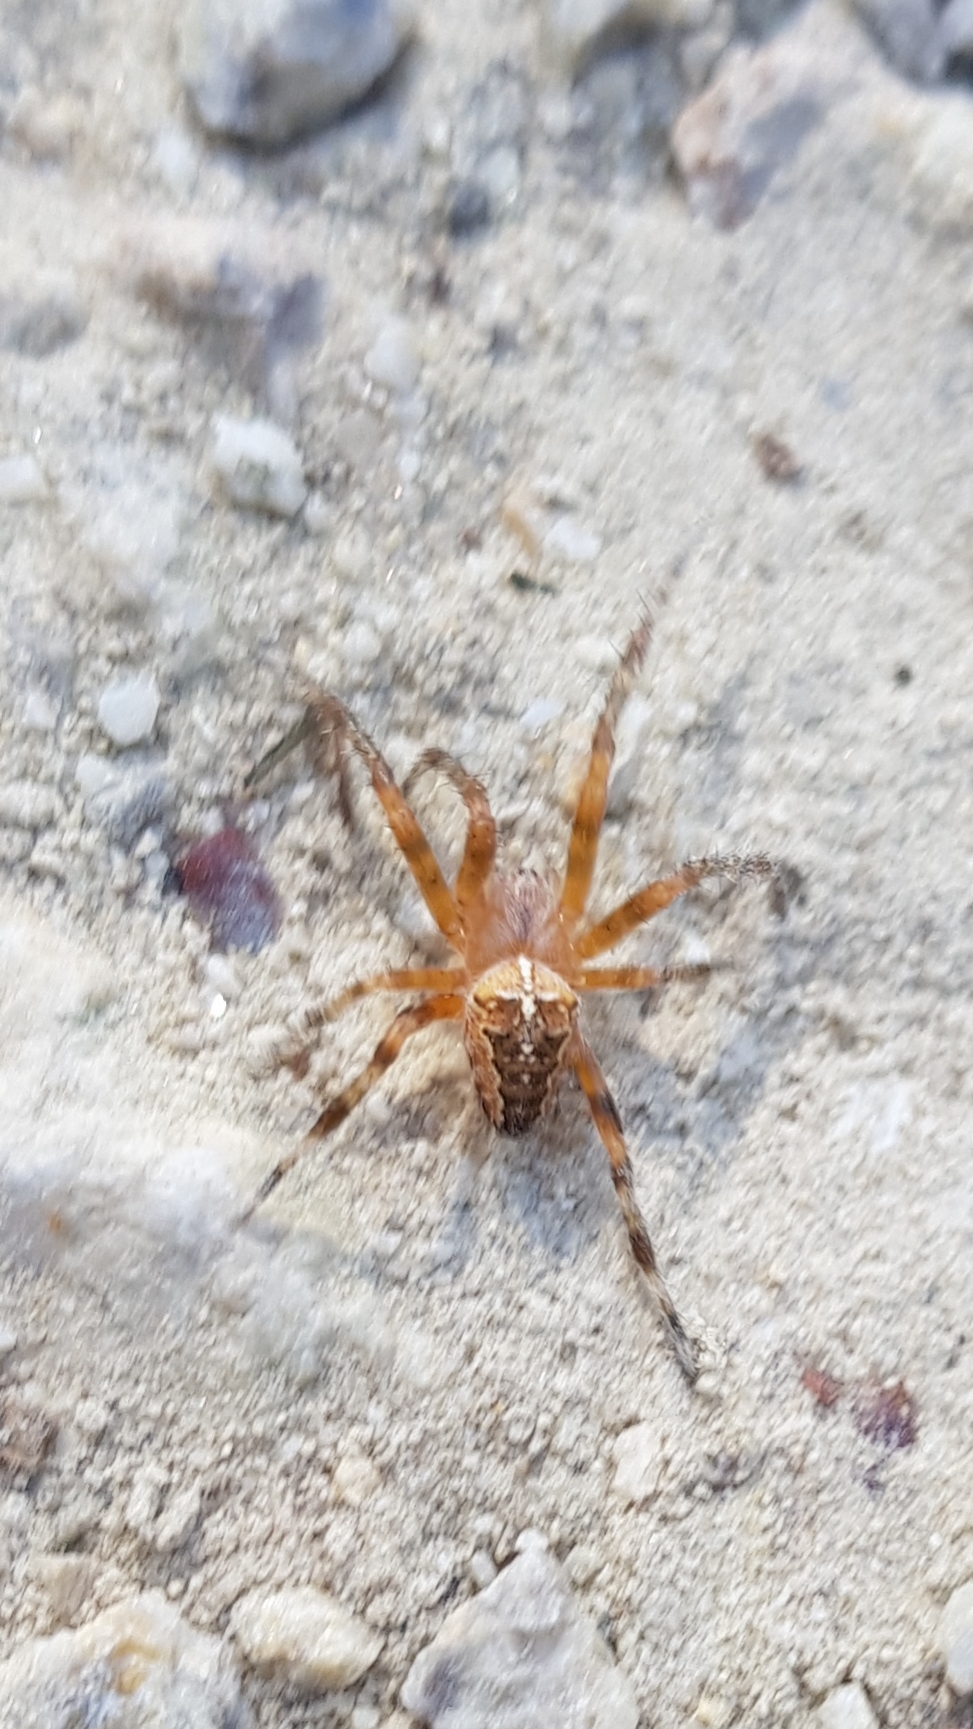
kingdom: Animalia
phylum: Arthropoda
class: Arachnida
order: Araneae
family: Araneidae
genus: Araneus
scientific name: Araneus diadematus
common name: Cross orbweaver
